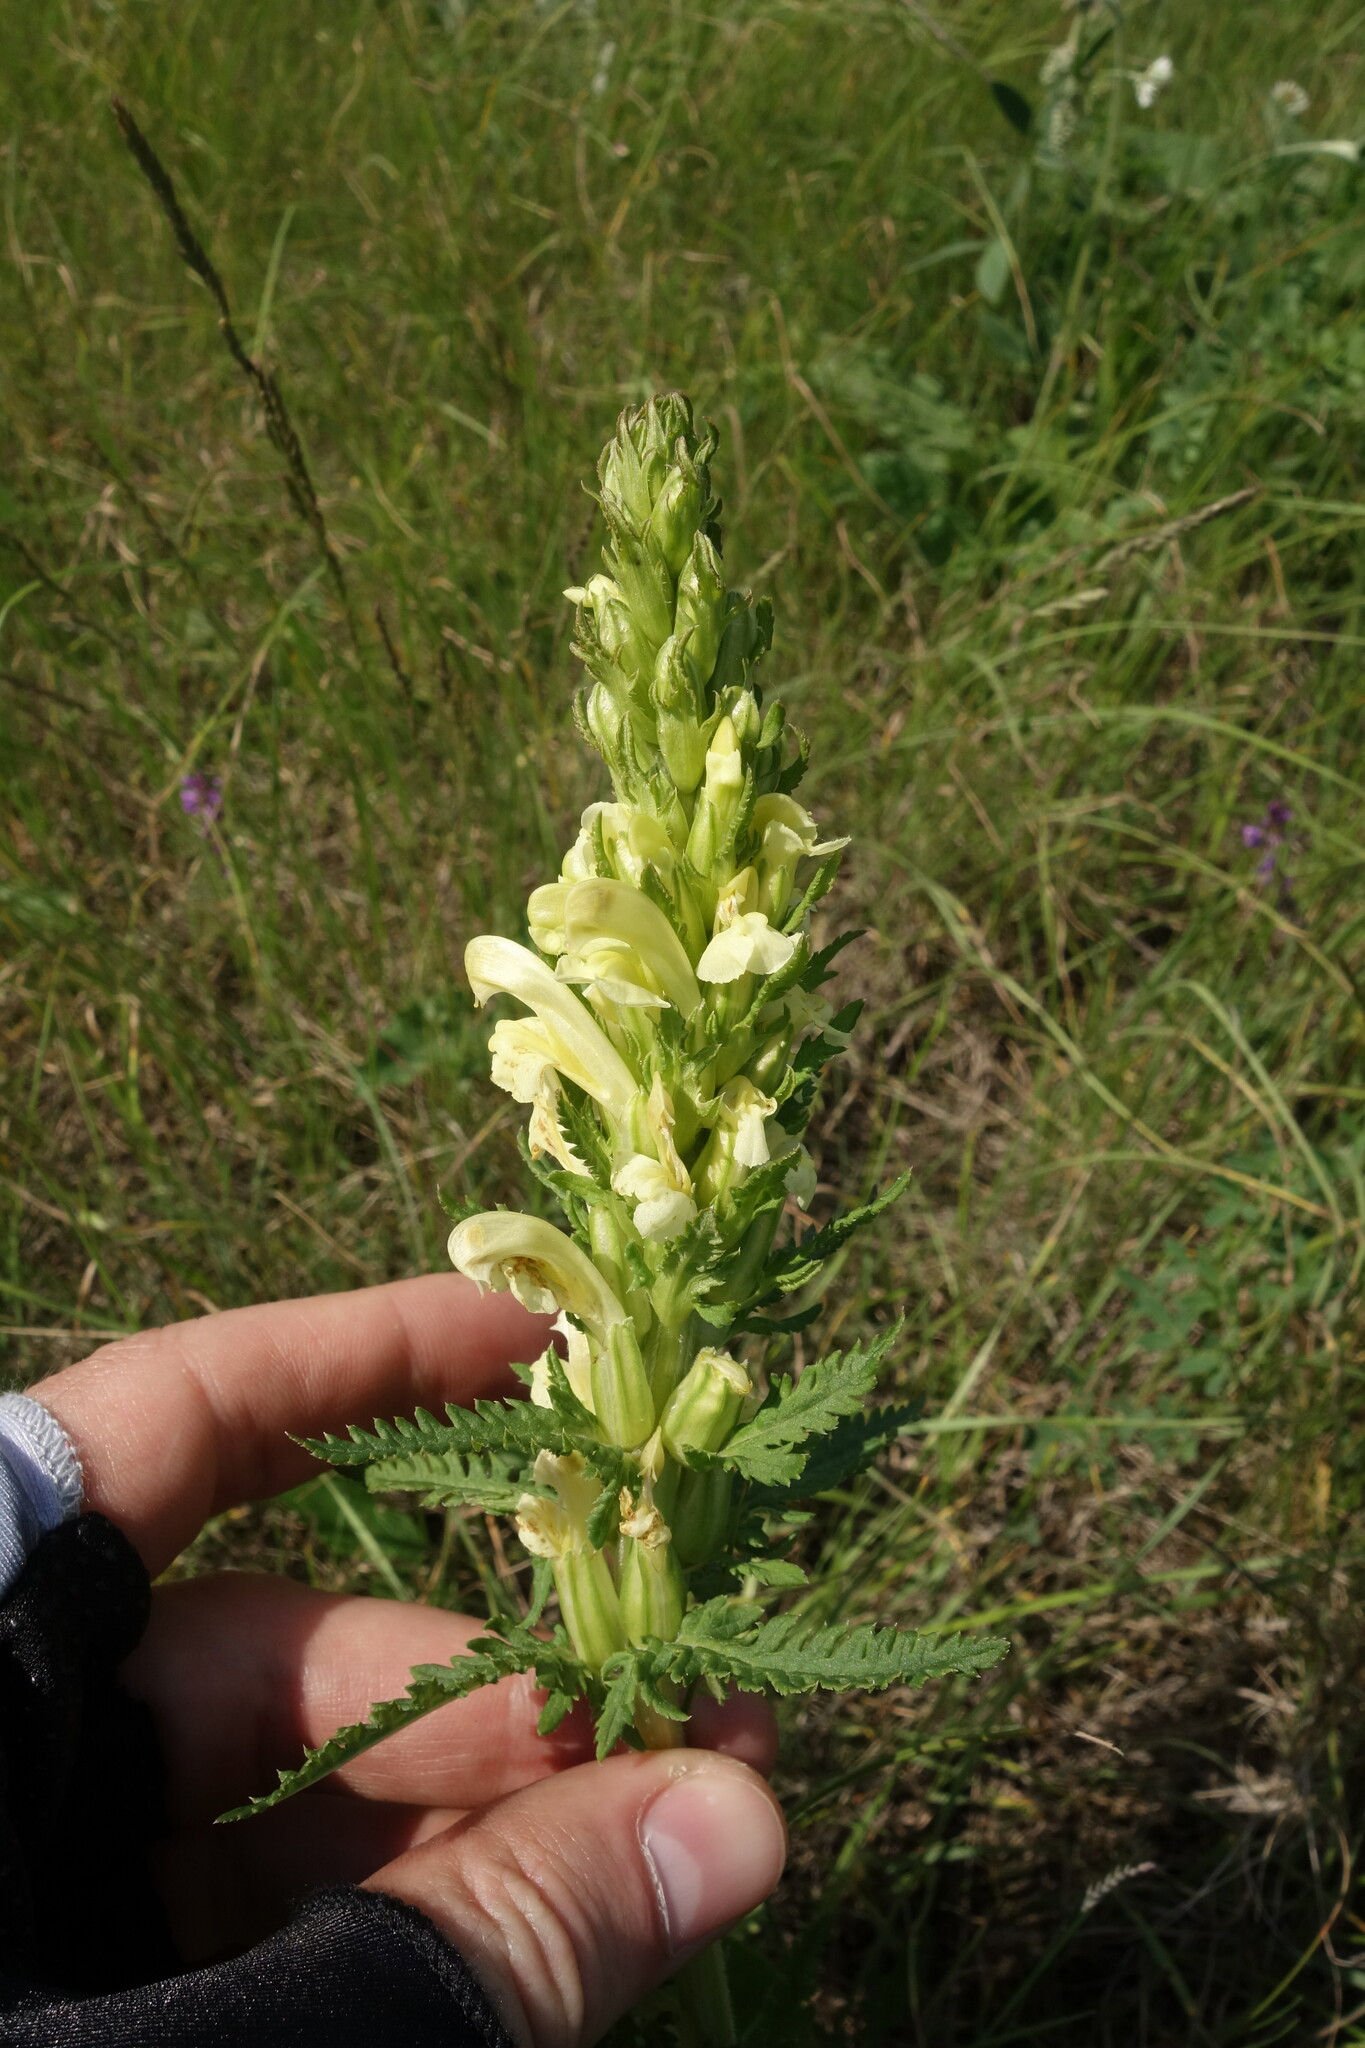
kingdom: Plantae
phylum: Tracheophyta
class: Magnoliopsida
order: Lamiales
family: Orobanchaceae
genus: Pedicularis
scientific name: Pedicularis kaufmannii
